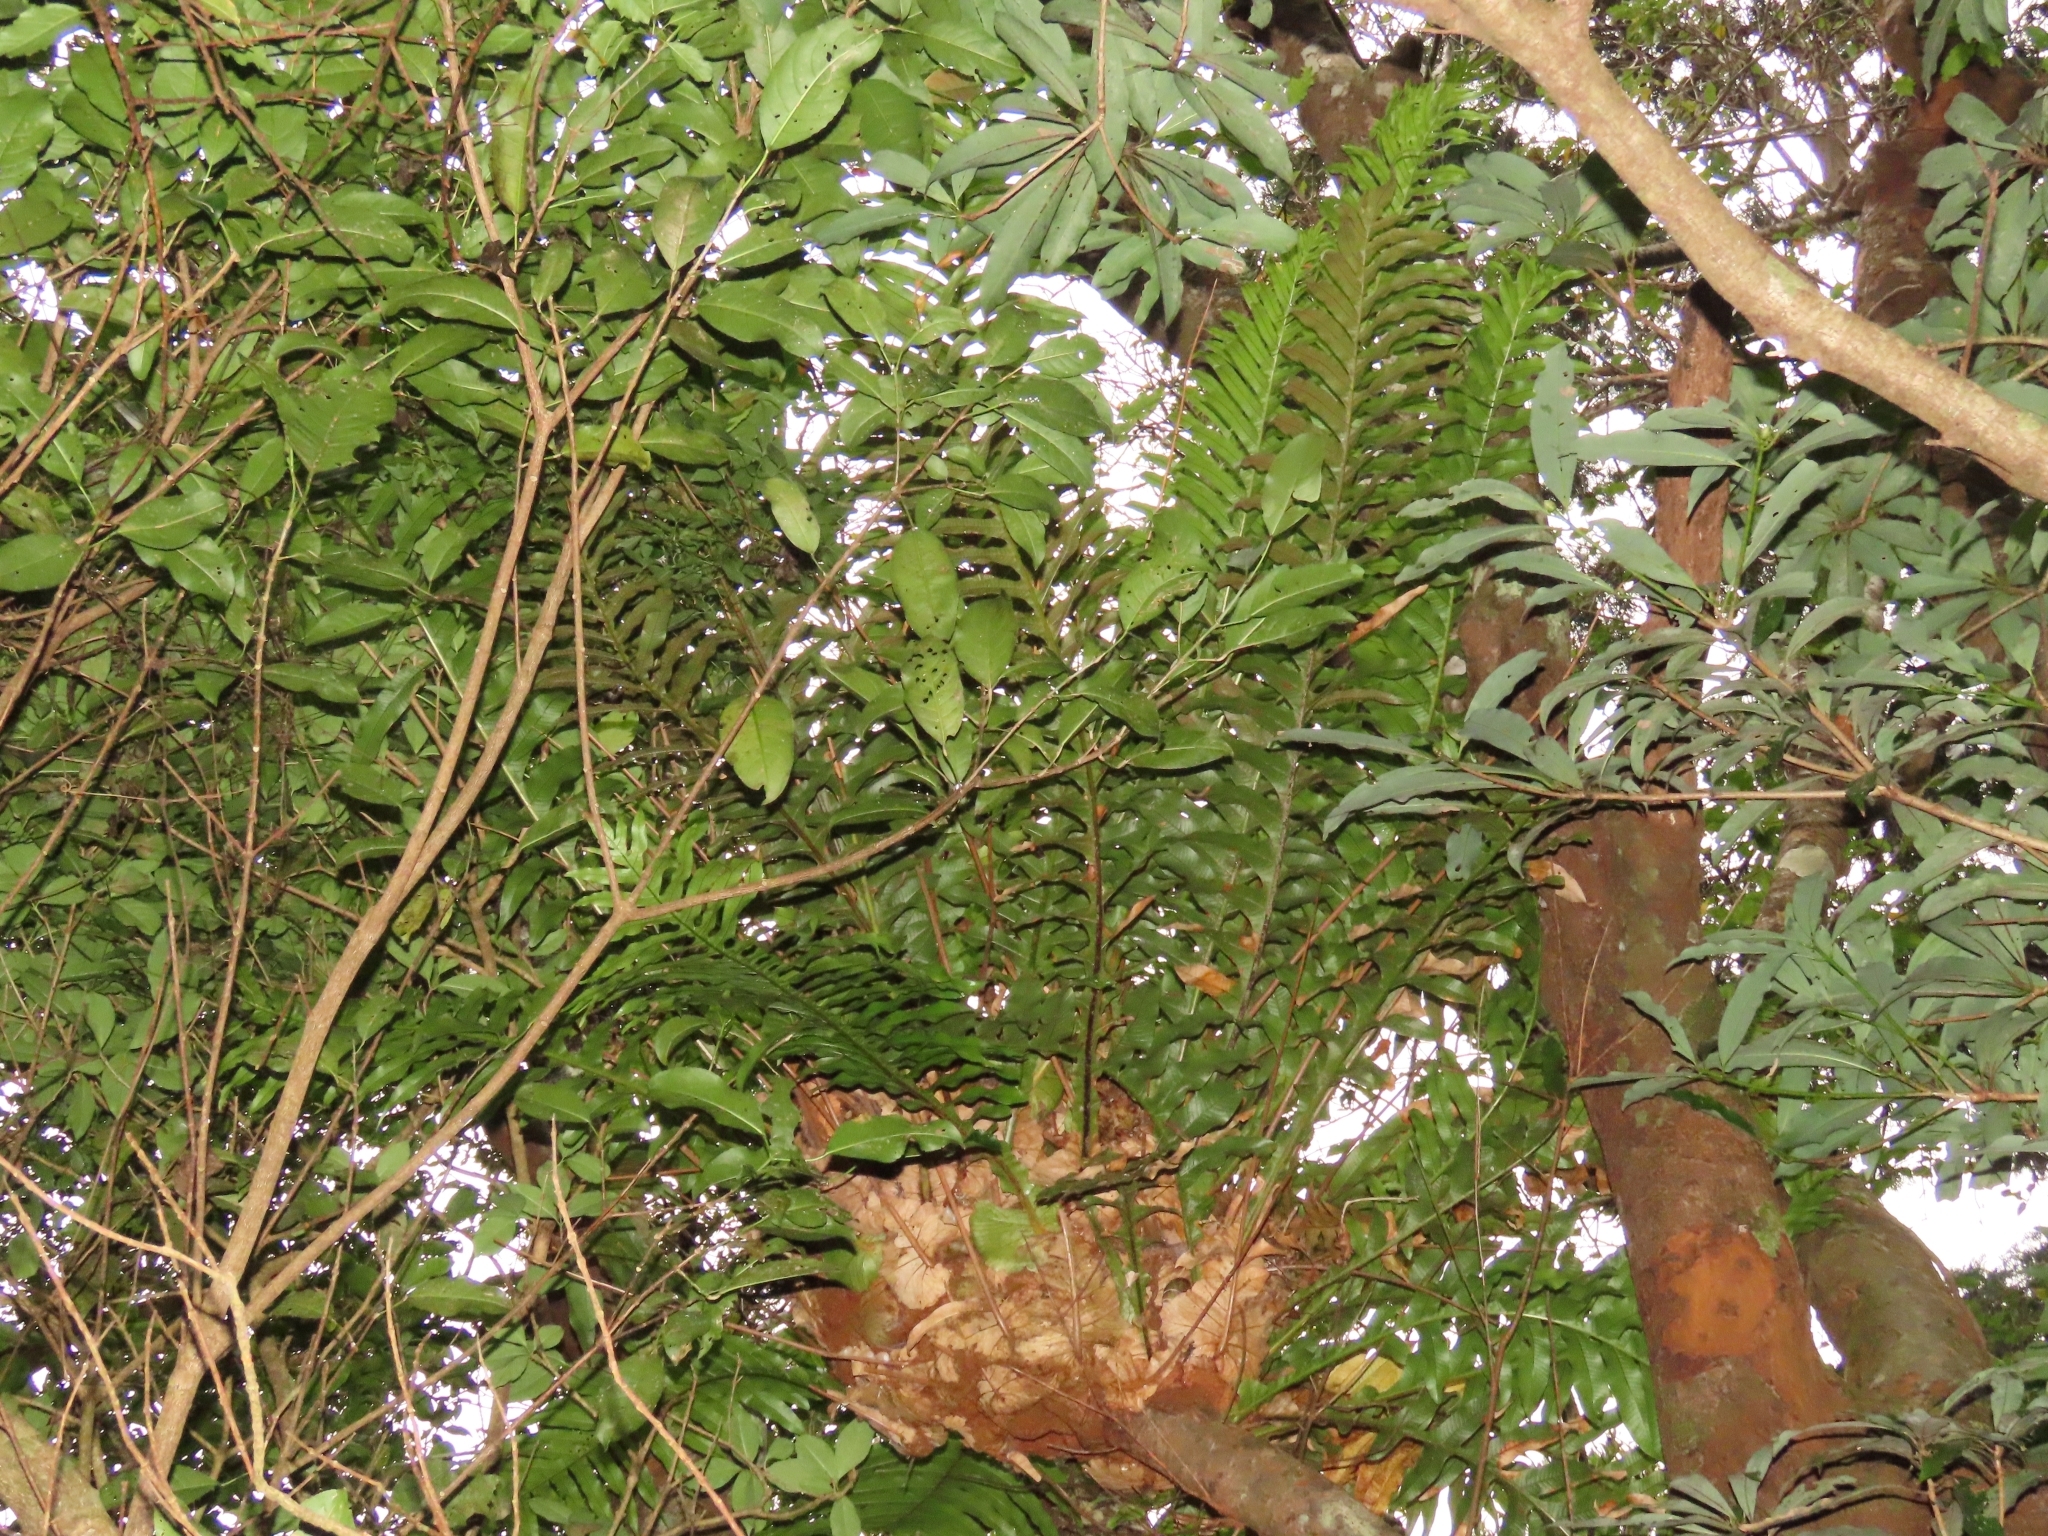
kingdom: Plantae
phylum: Tracheophyta
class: Polypodiopsida
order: Polypodiales
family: Polypodiaceae
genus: Drynaria
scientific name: Drynaria coronans
